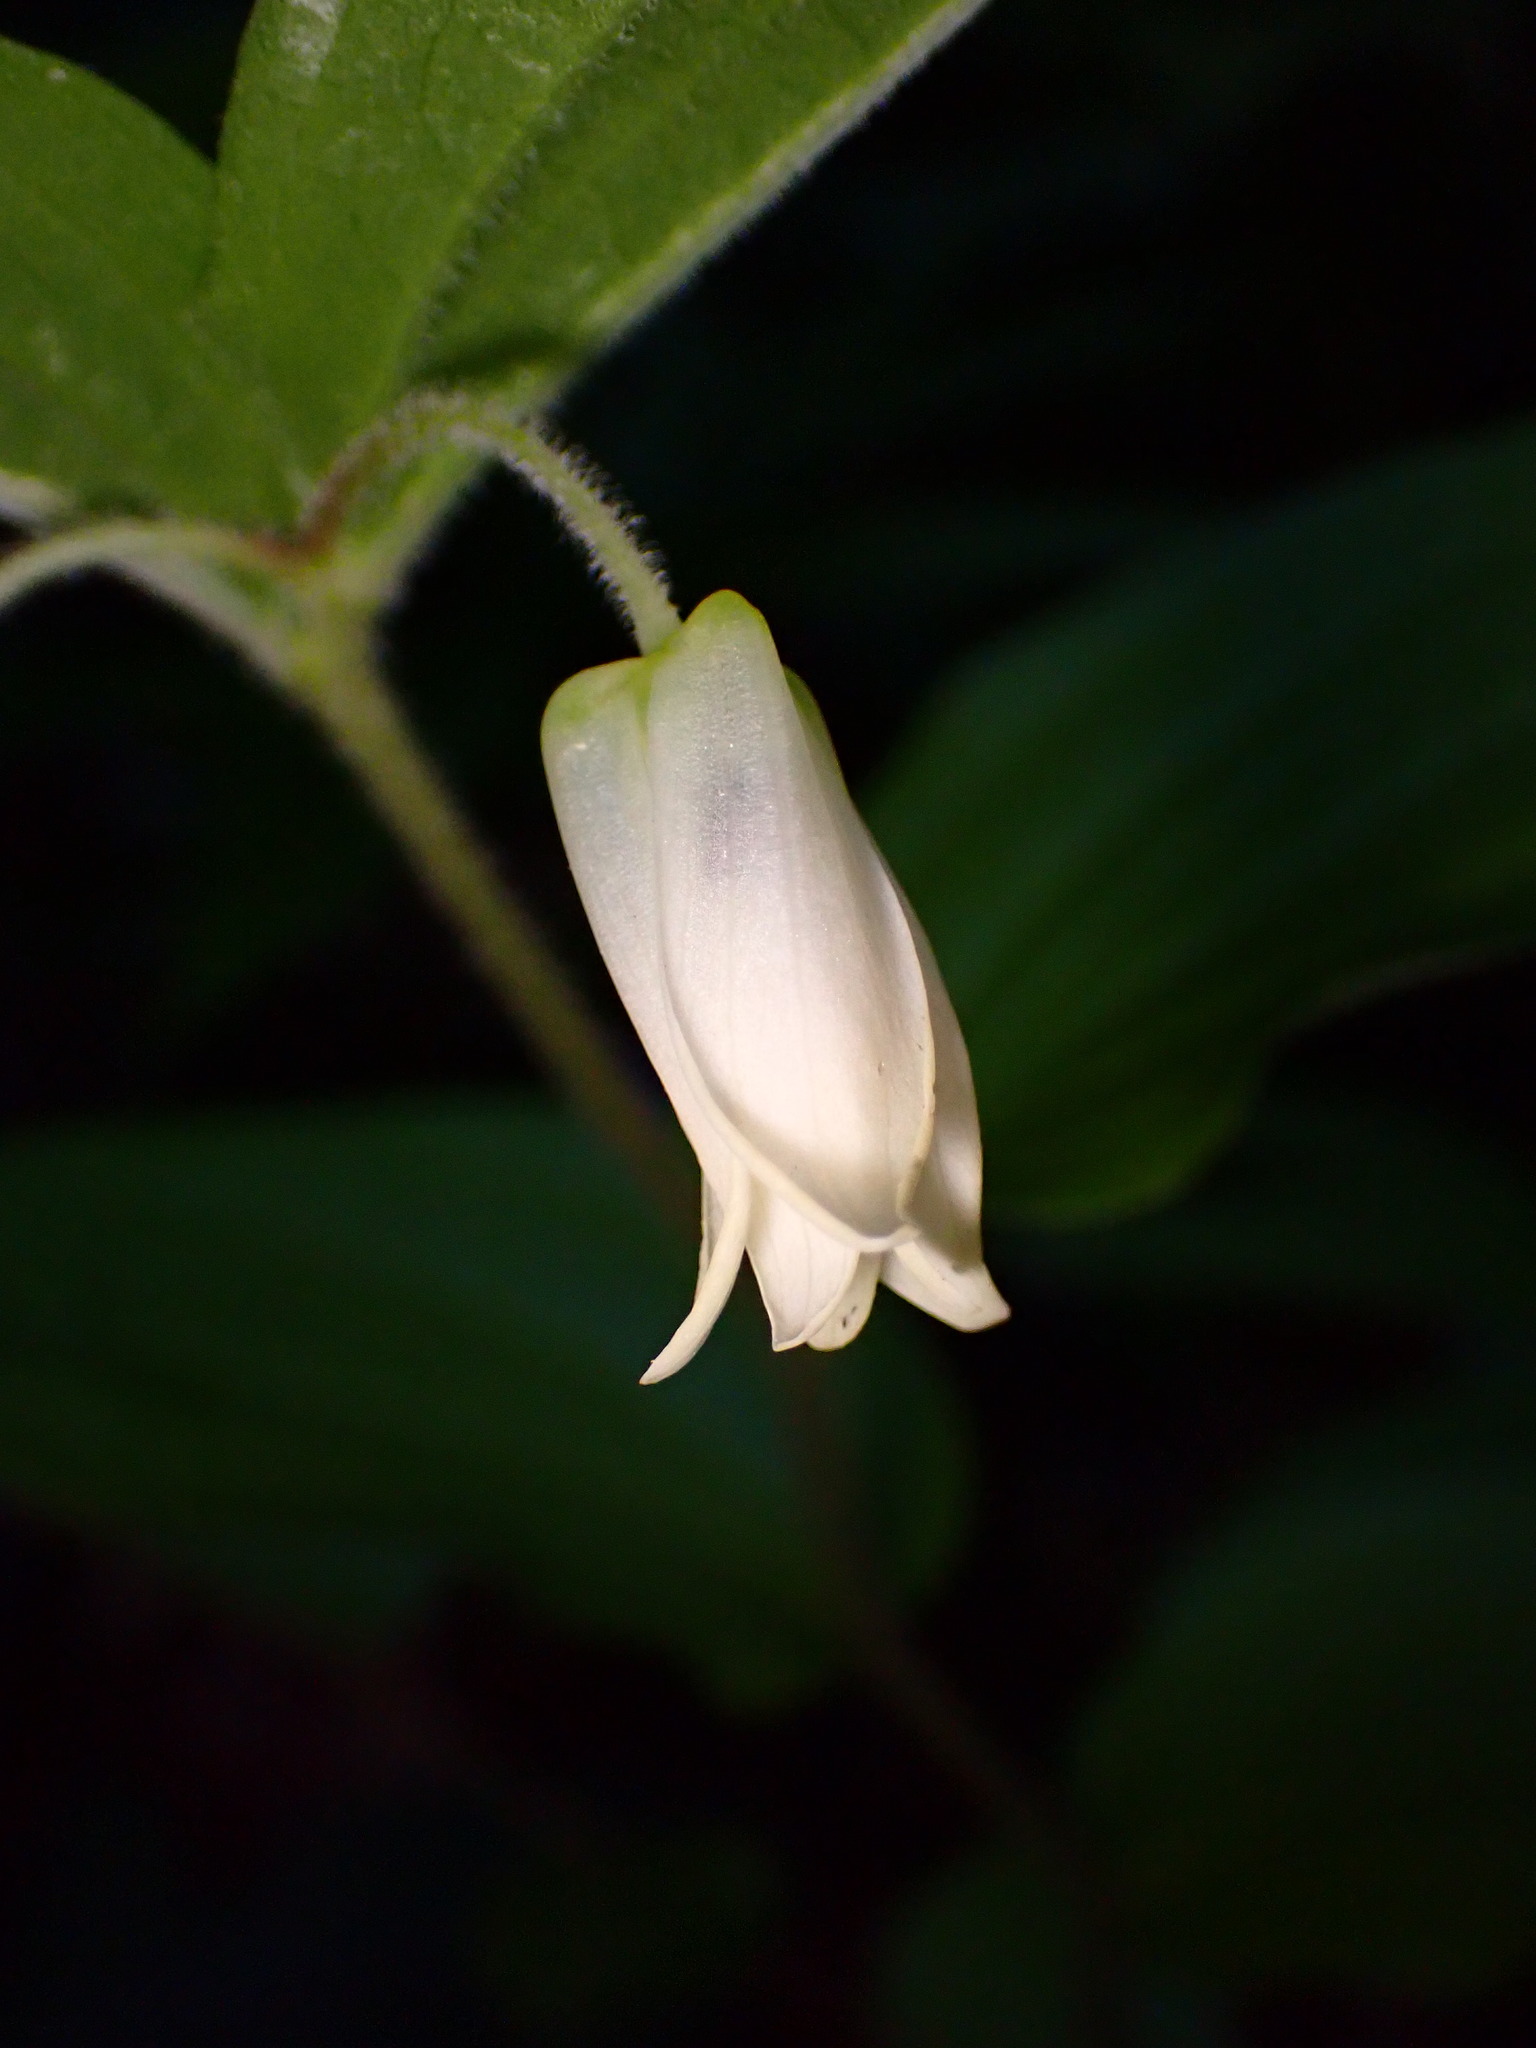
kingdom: Plantae
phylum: Tracheophyta
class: Liliopsida
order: Liliales
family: Liliaceae
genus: Prosartes
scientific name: Prosartes smithii
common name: Fairy-lantern
